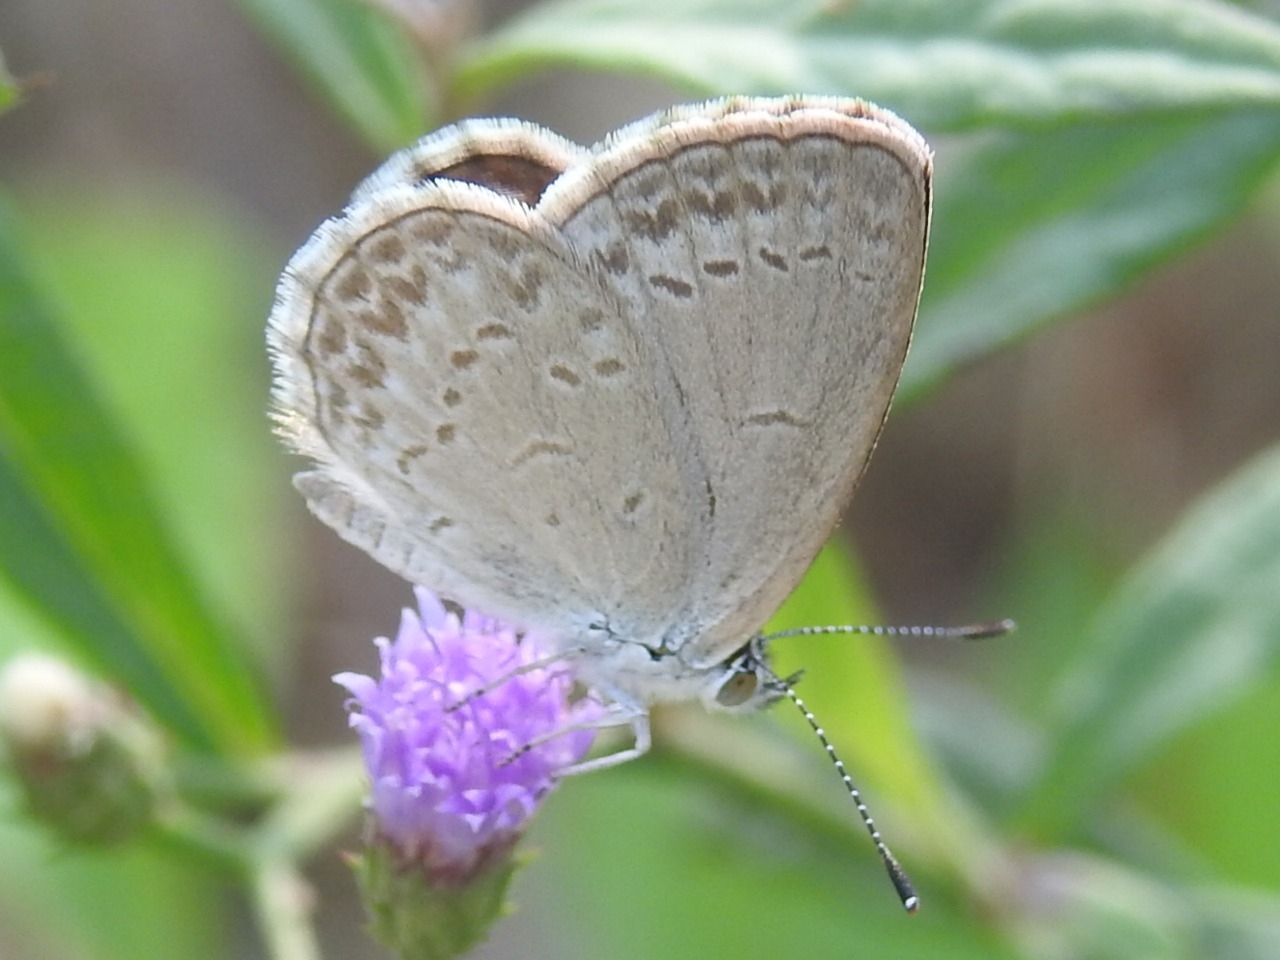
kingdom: Animalia
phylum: Arthropoda
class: Insecta
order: Lepidoptera
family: Lycaenidae
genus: Zizina
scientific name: Zizina otis
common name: Lesser grass blue
